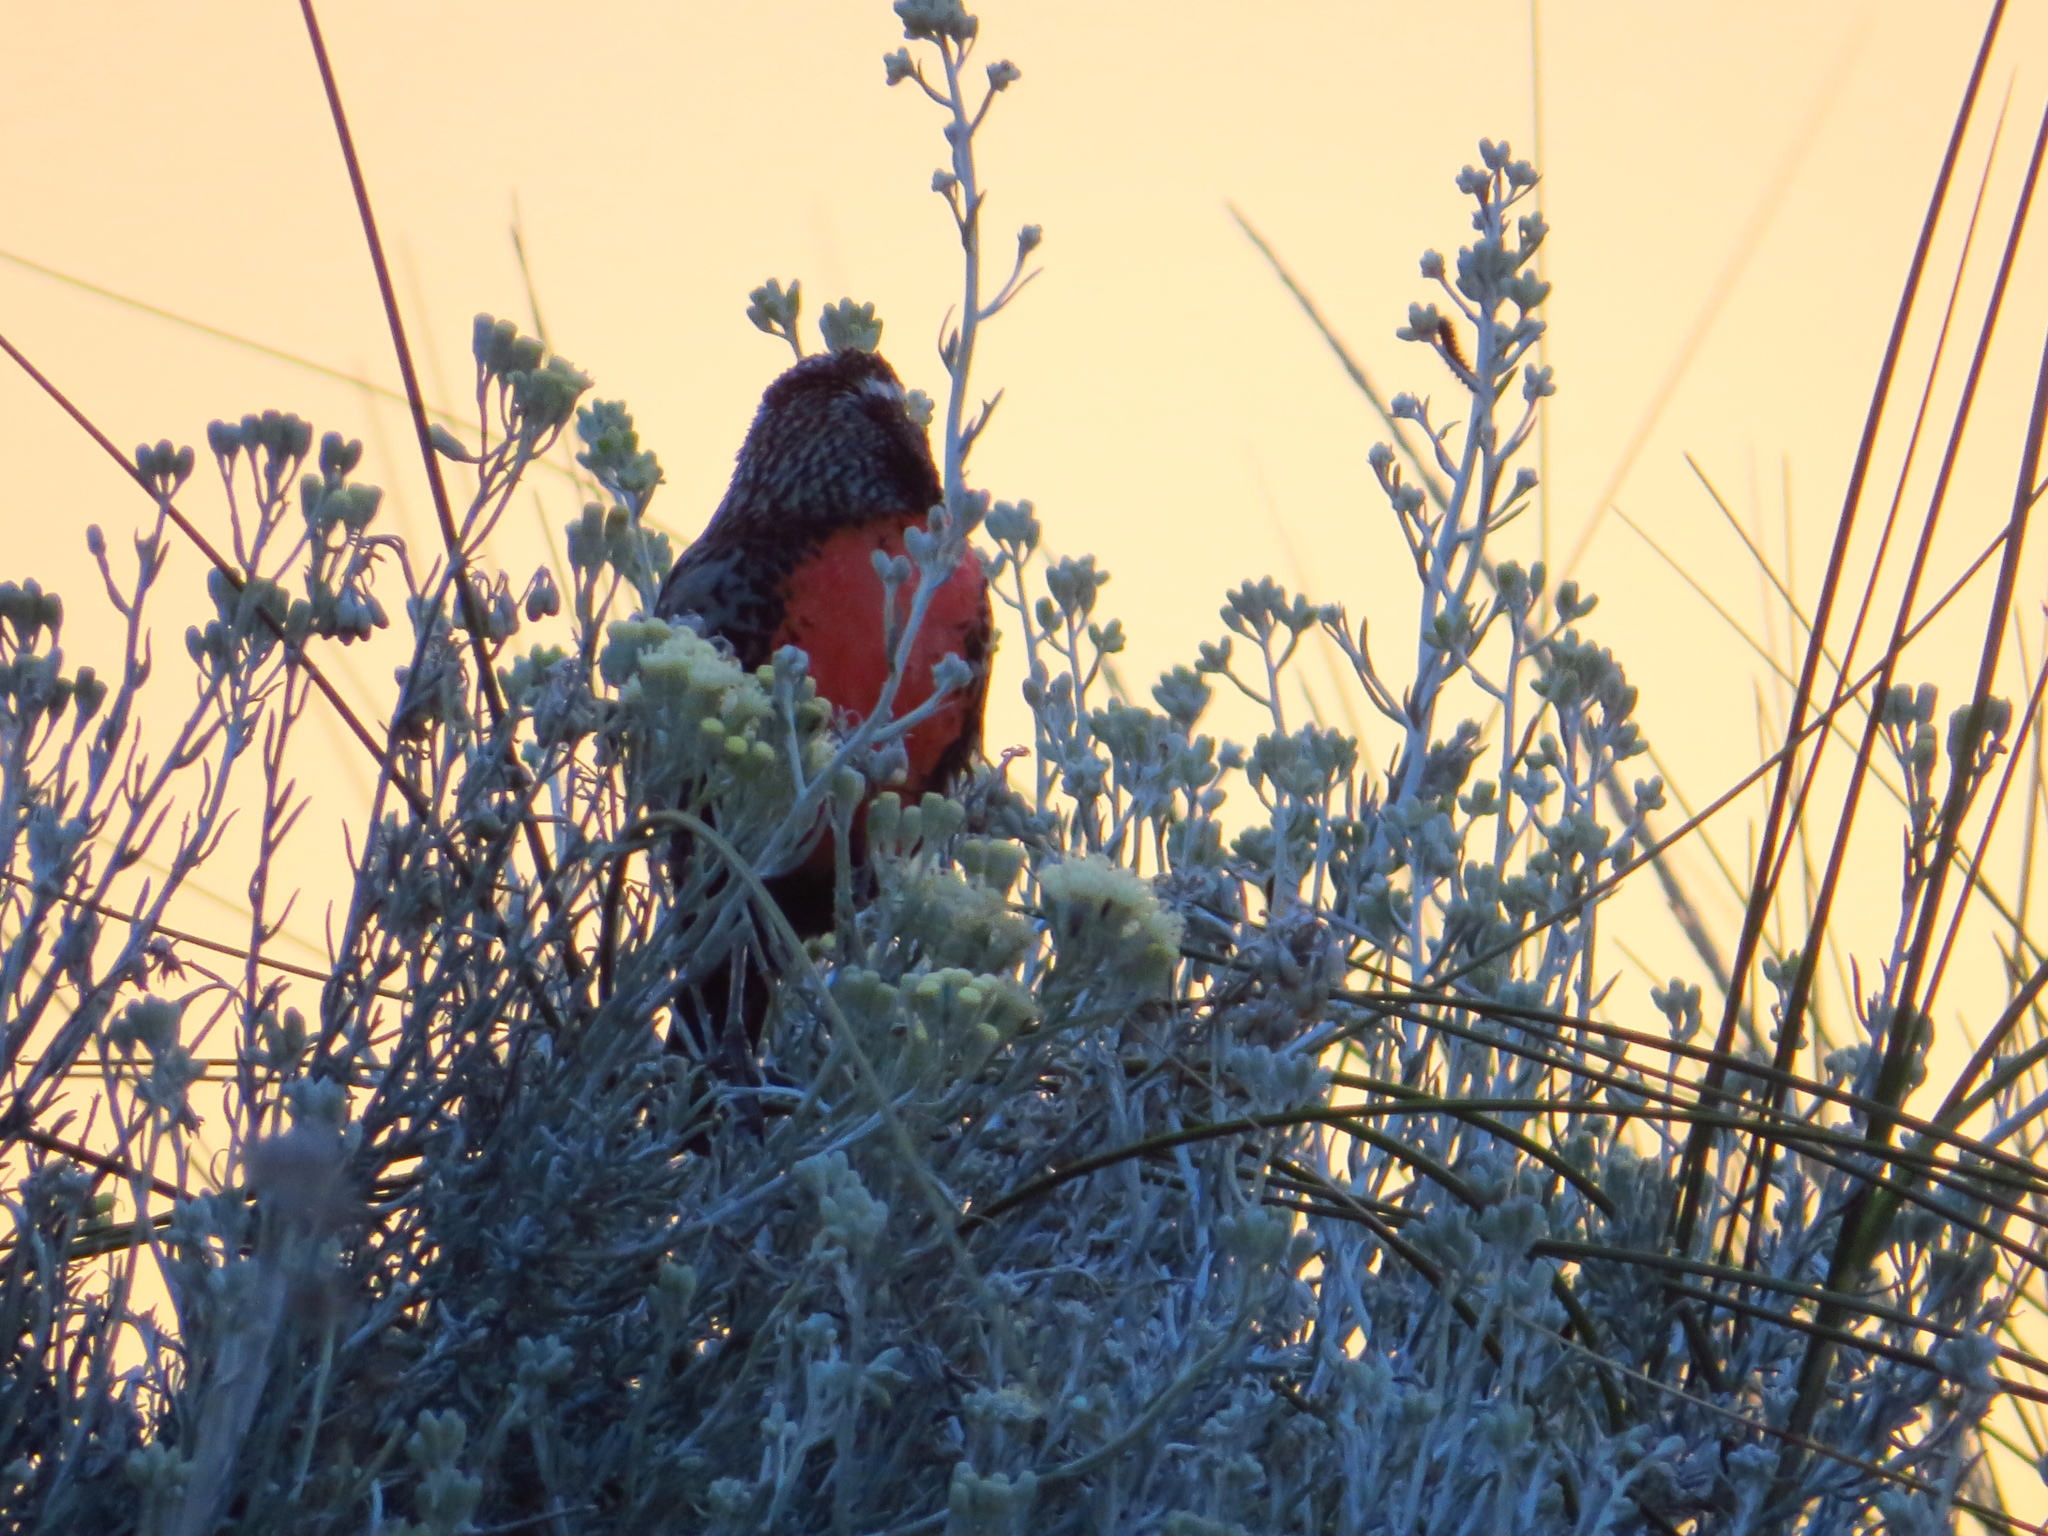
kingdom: Animalia
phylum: Chordata
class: Aves
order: Passeriformes
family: Icteridae
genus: Sturnella
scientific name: Sturnella loyca
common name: Long-tailed meadowlark
